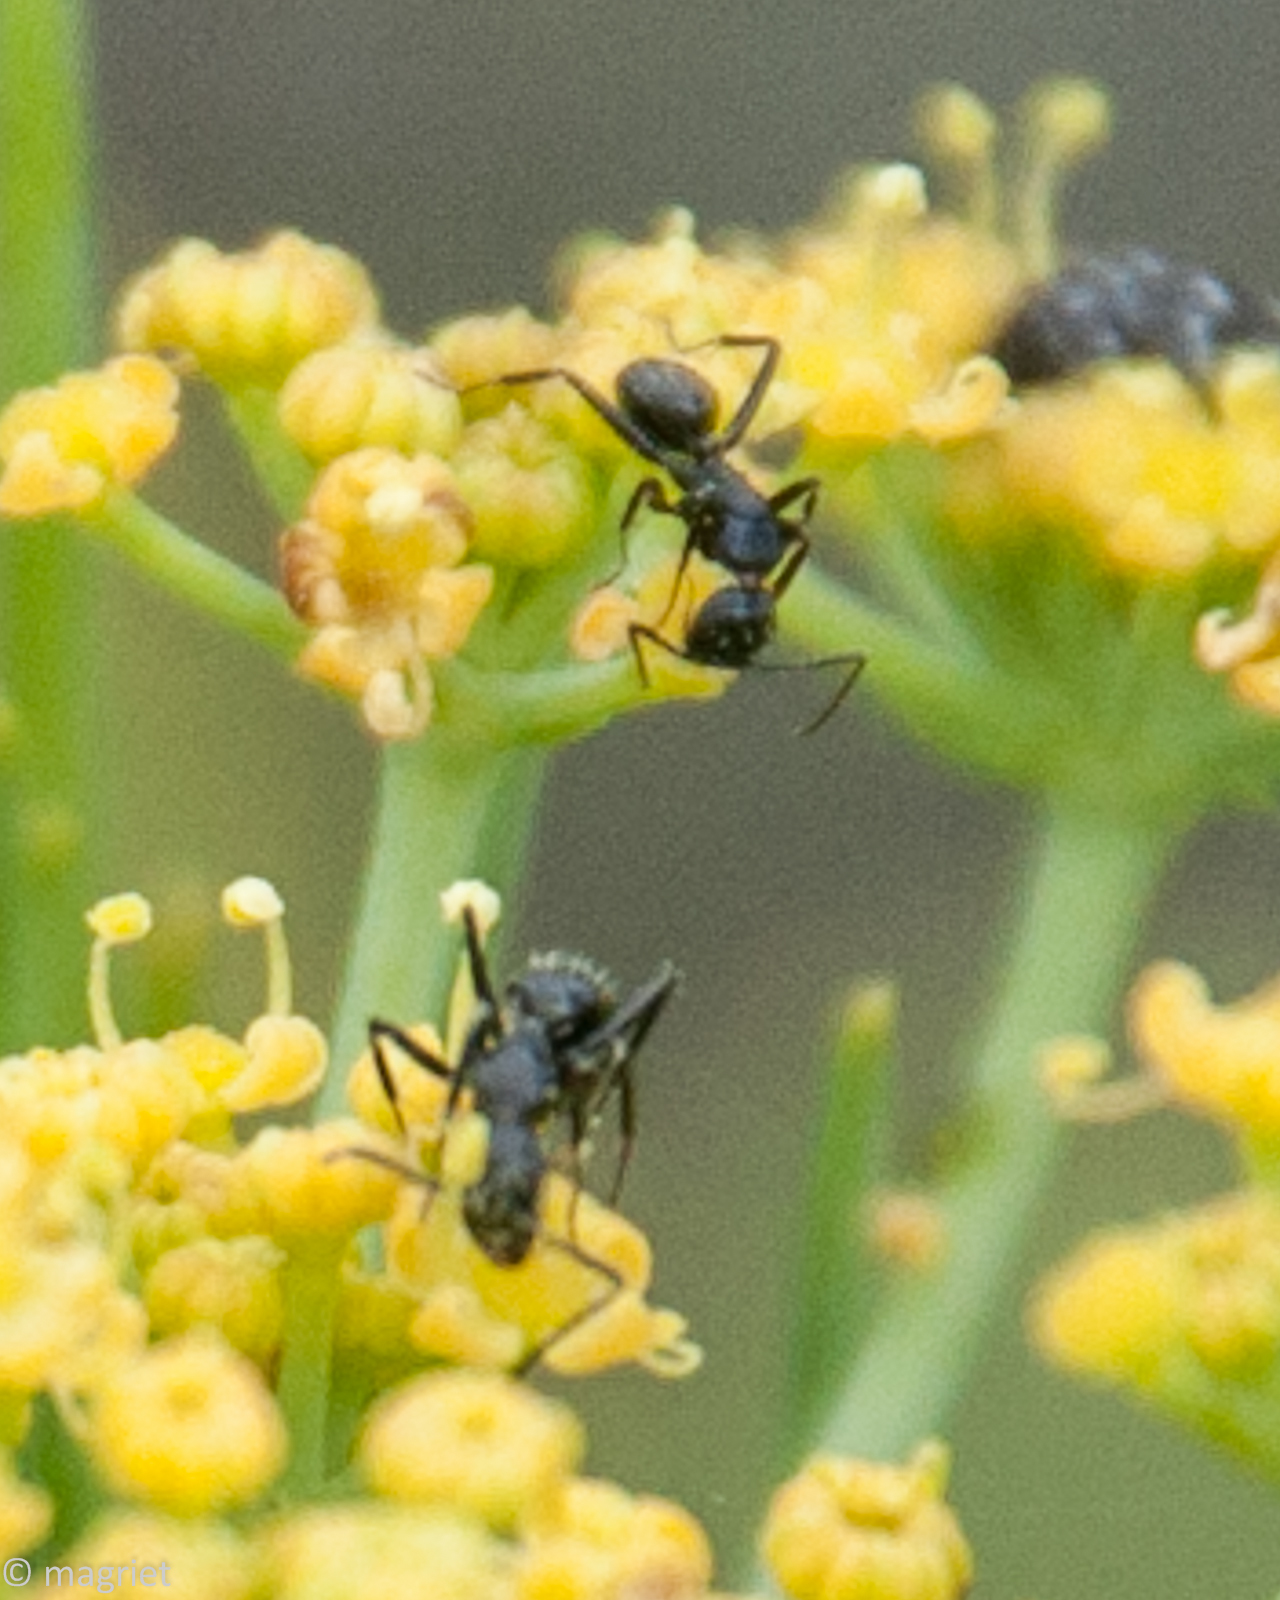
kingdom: Animalia
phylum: Arthropoda
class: Insecta
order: Hymenoptera
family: Formicidae
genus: Camponotus
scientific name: Camponotus niveosetosus
